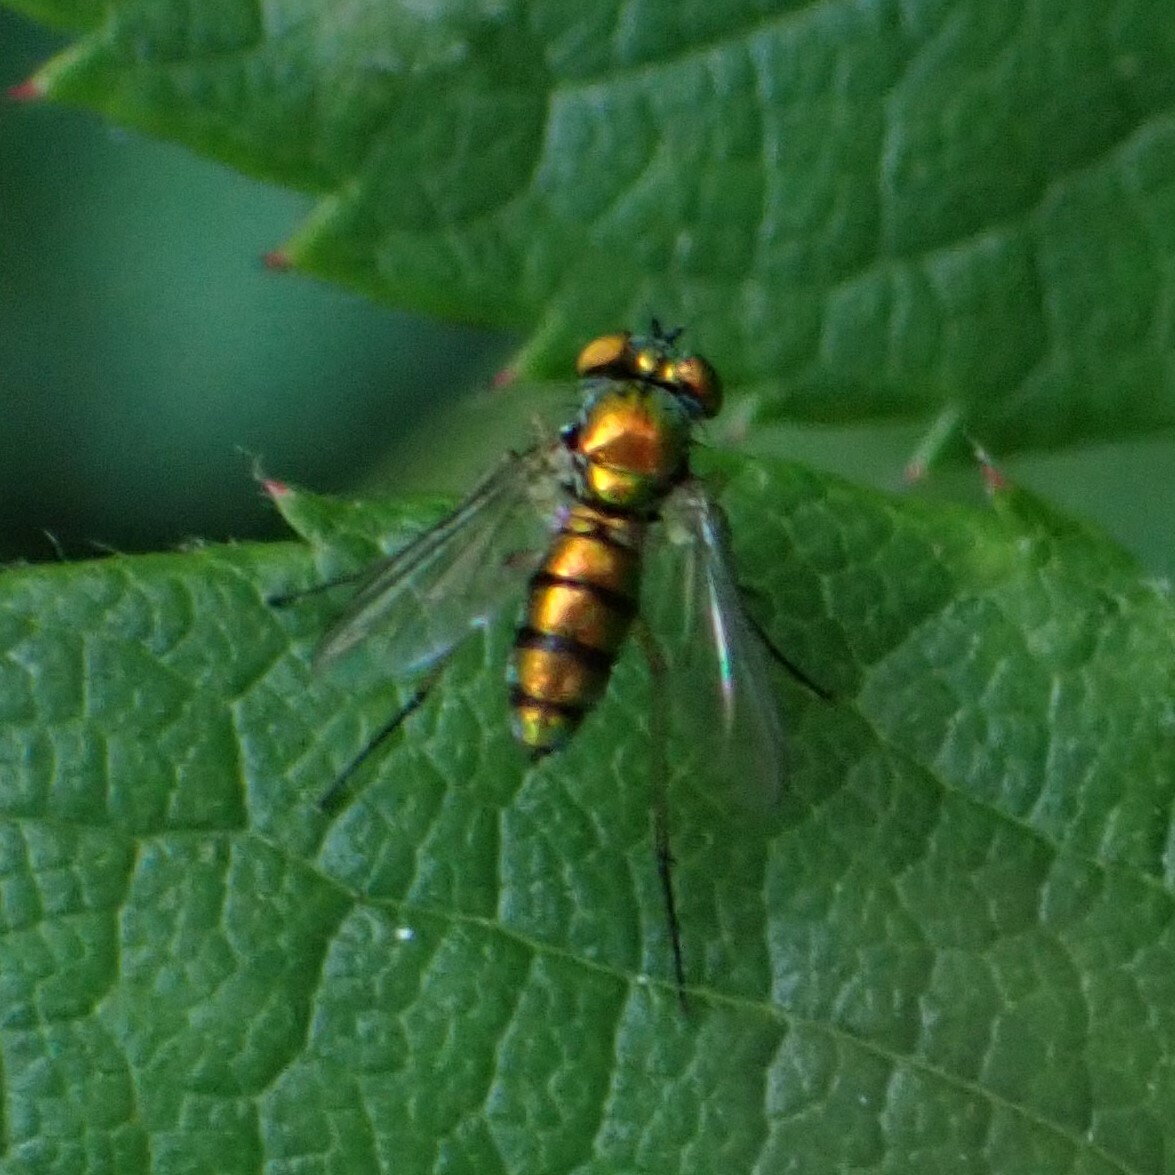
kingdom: Animalia
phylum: Arthropoda
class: Insecta
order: Diptera
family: Dolichopodidae
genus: Condylostylus
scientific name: Condylostylus
